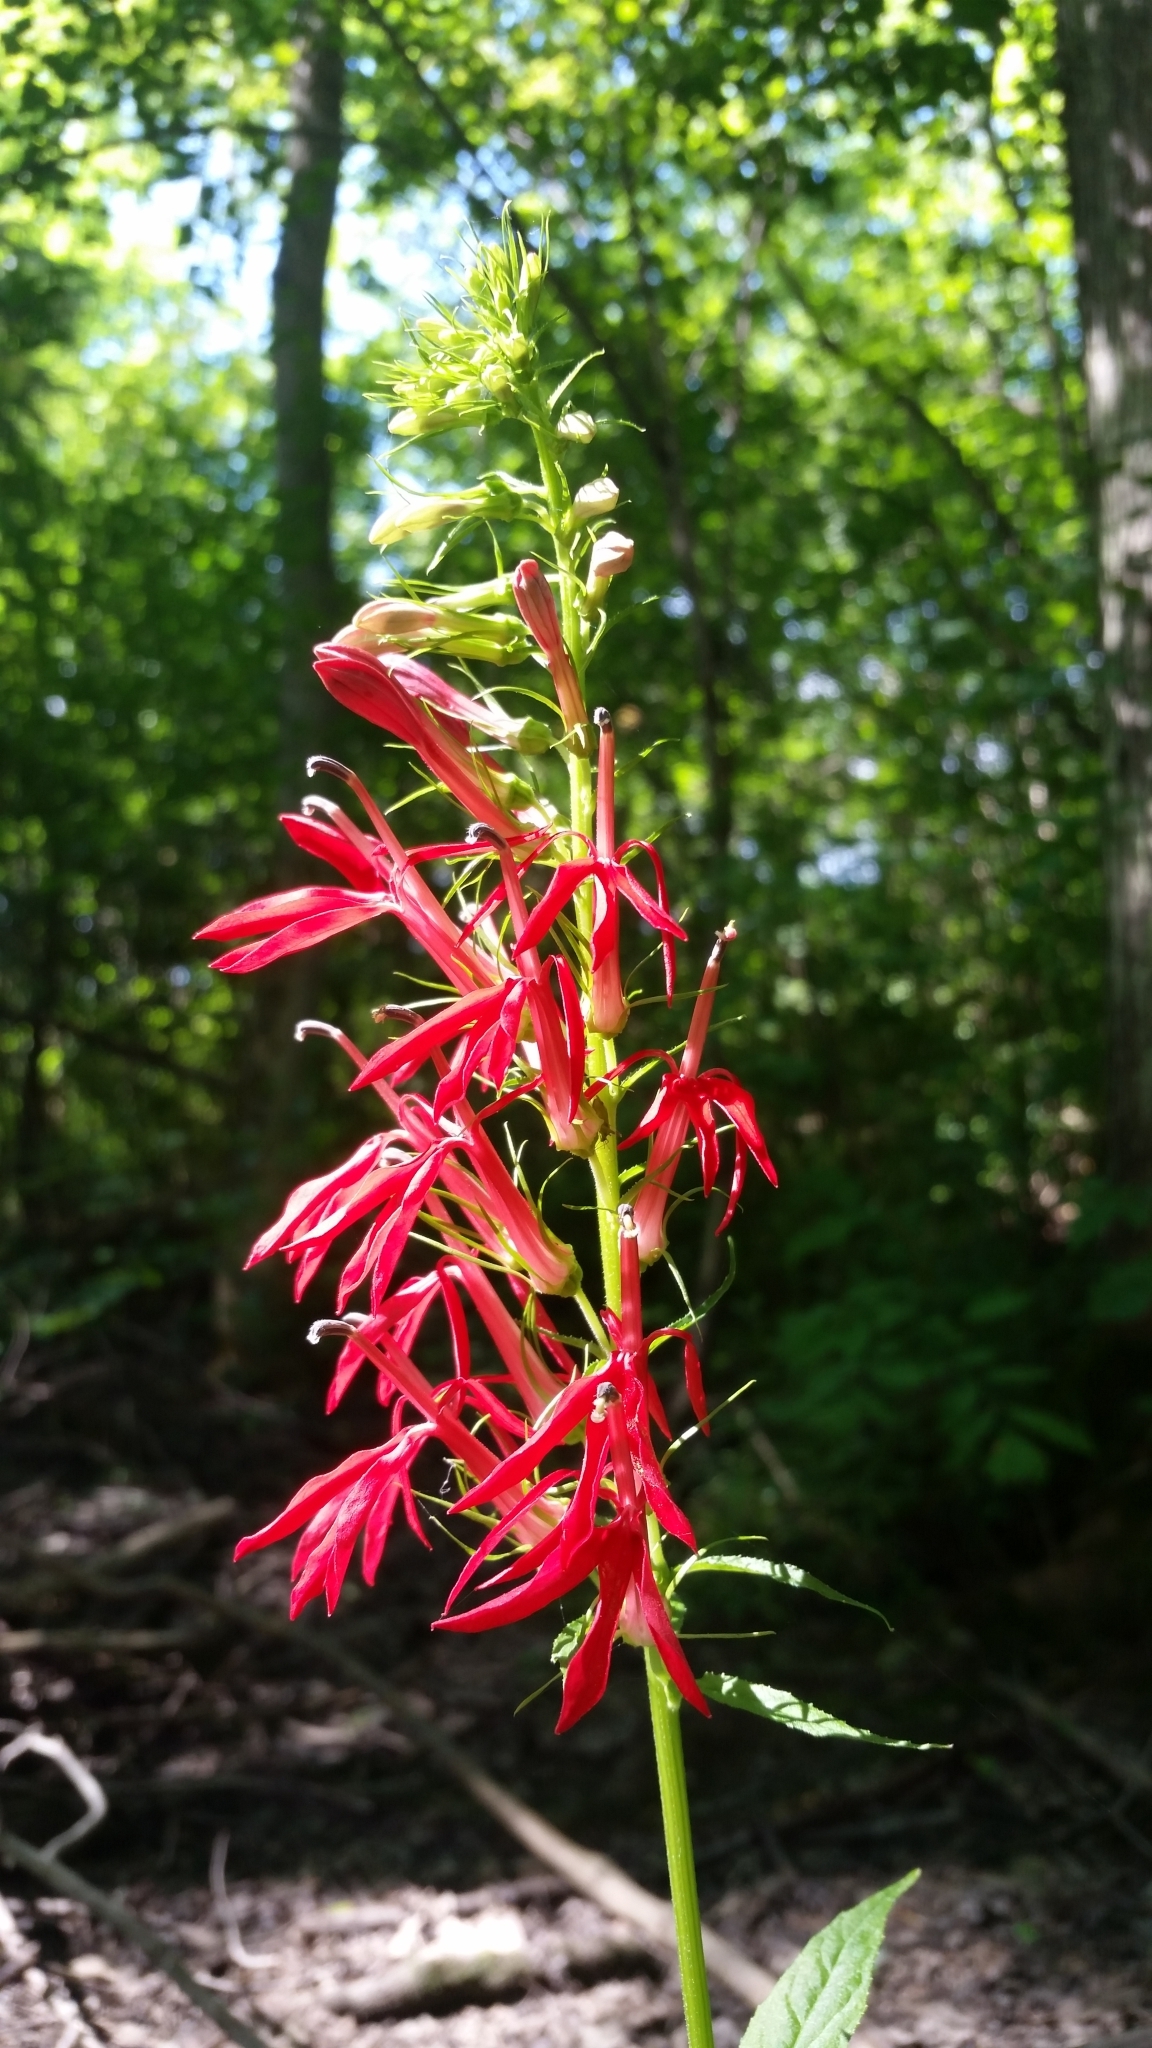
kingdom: Plantae
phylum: Tracheophyta
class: Magnoliopsida
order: Asterales
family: Campanulaceae
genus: Lobelia
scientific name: Lobelia cardinalis
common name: Cardinal flower
